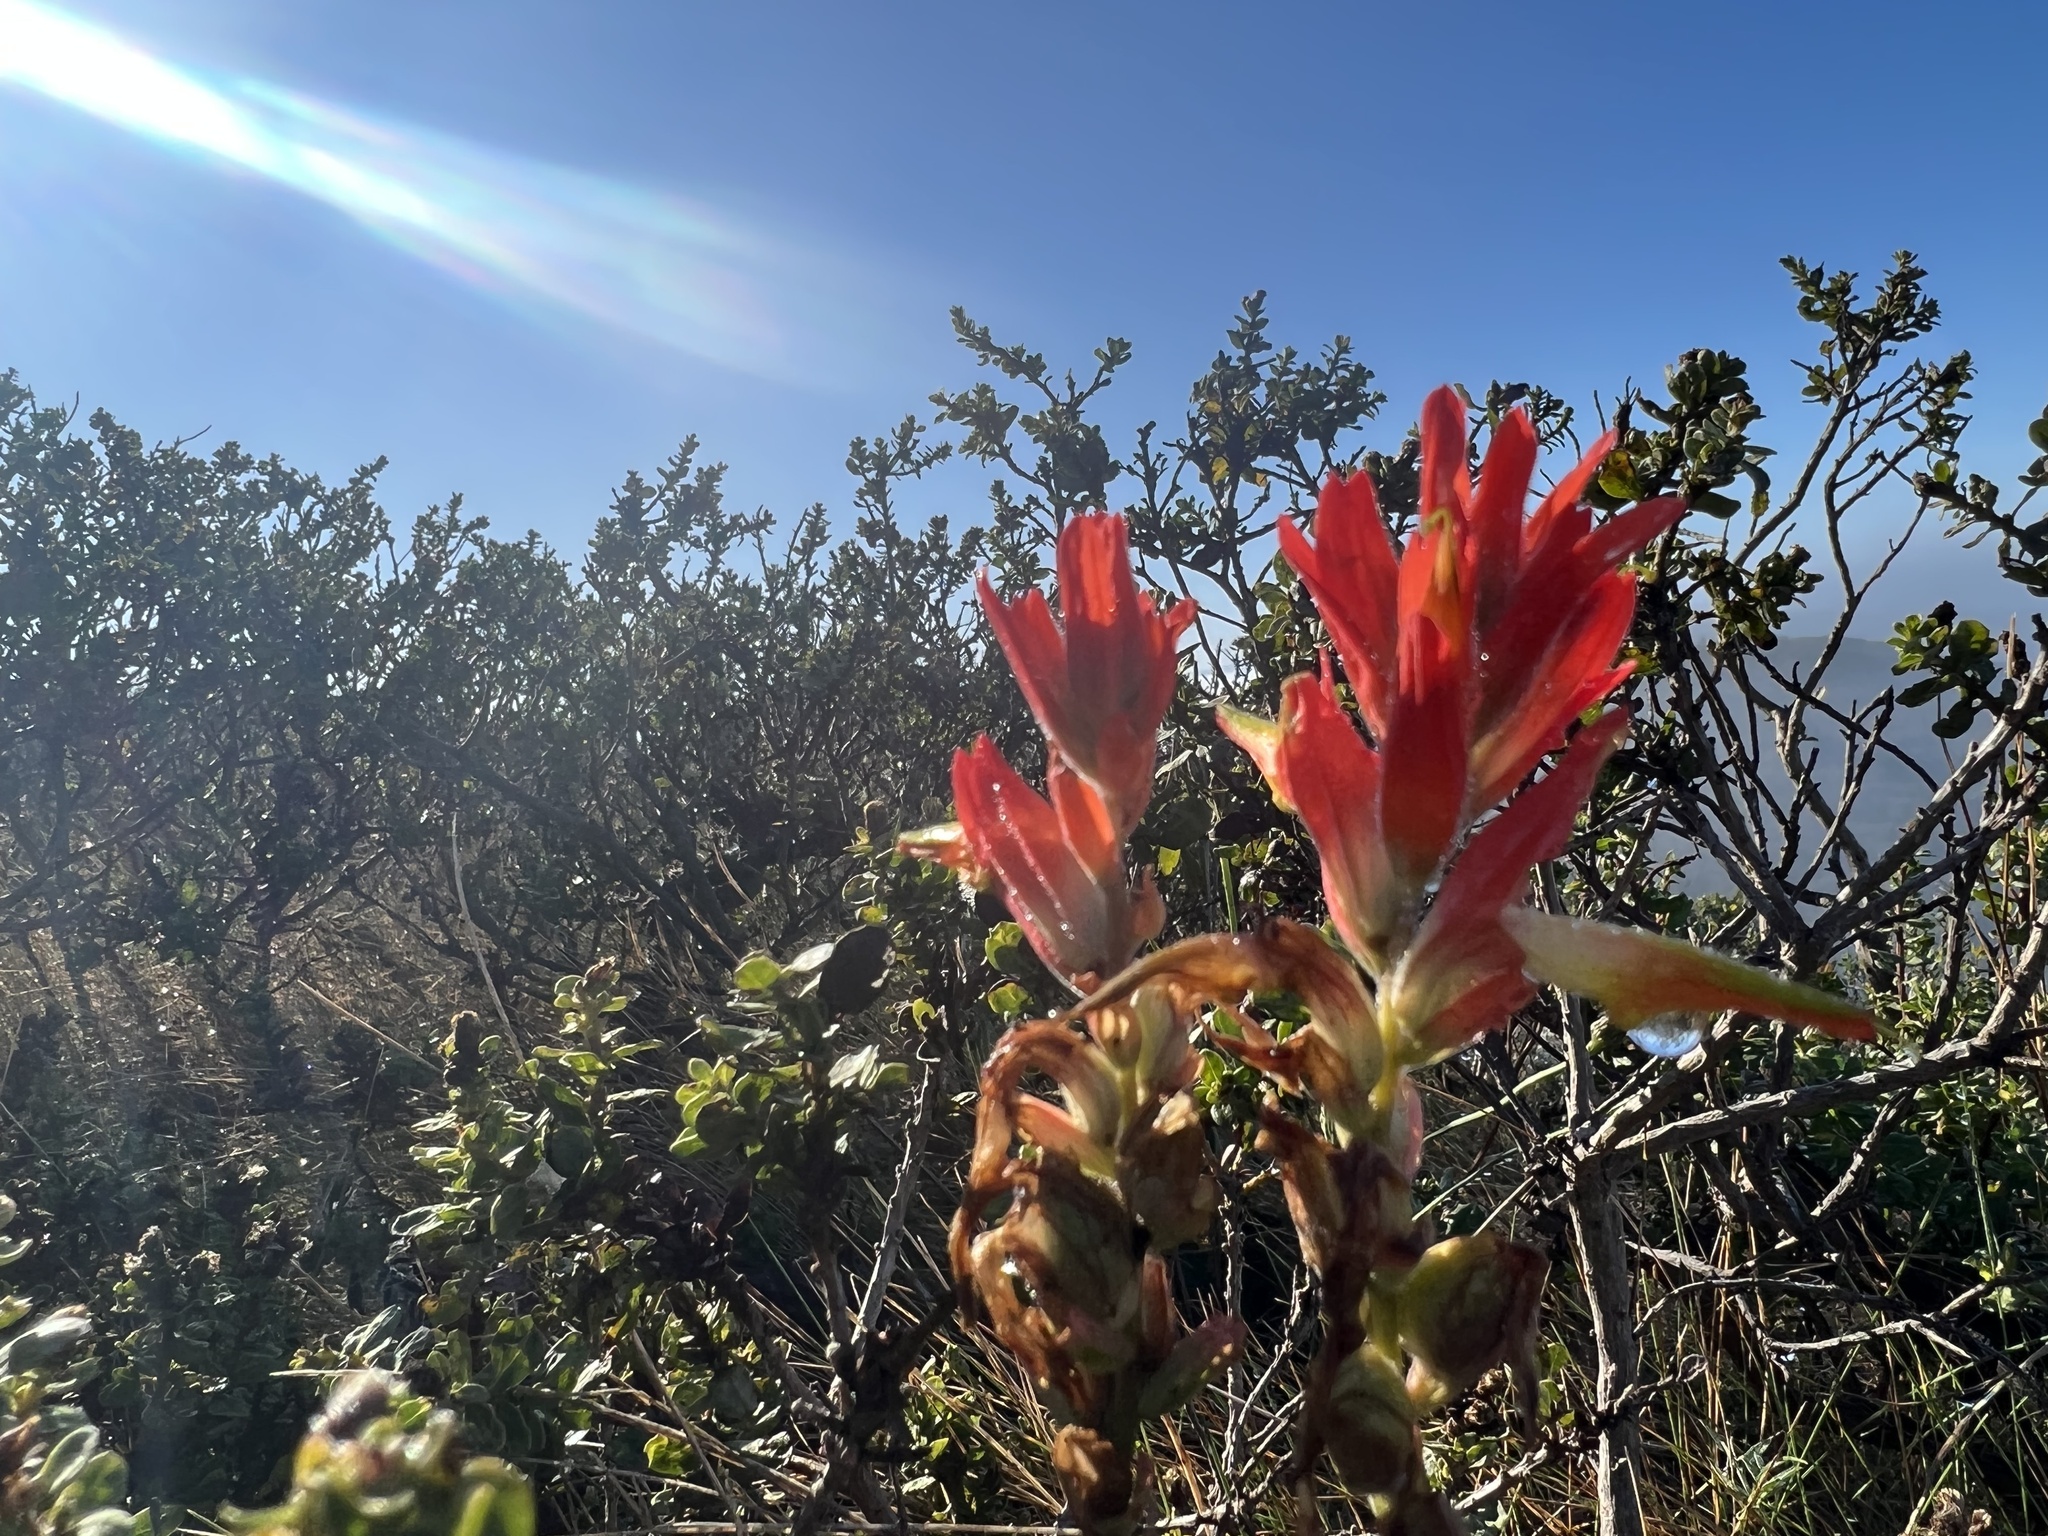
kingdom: Plantae
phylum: Tracheophyta
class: Magnoliopsida
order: Lamiales
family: Orobanchaceae
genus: Castilleja
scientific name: Castilleja subinclusa
